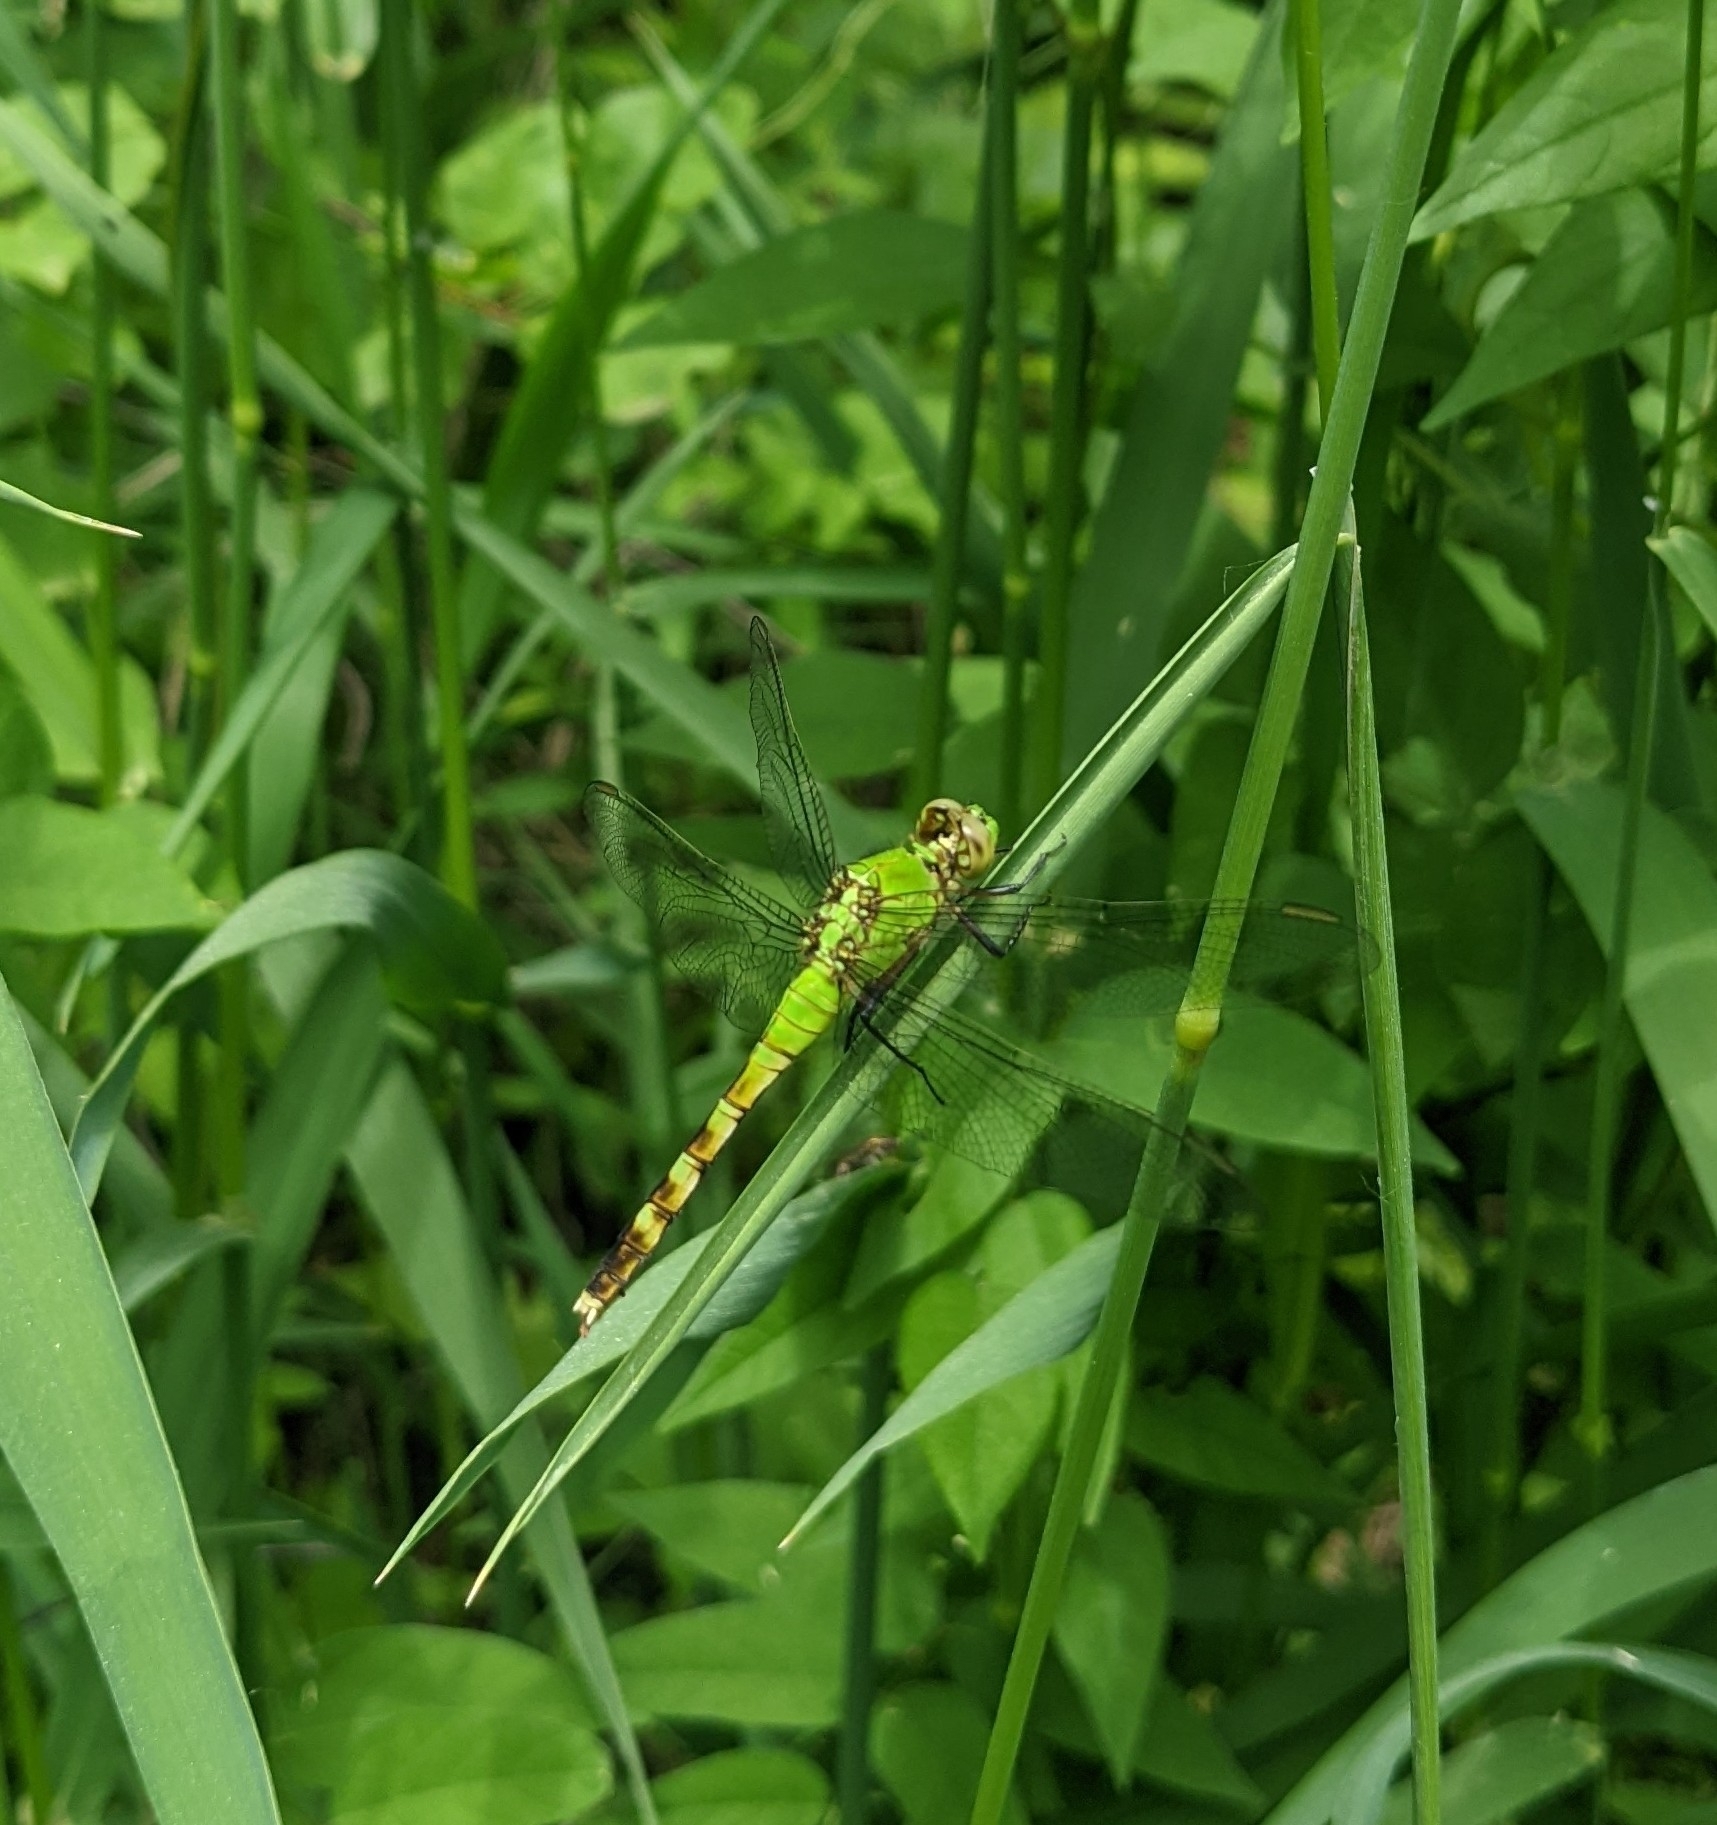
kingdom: Animalia
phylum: Arthropoda
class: Insecta
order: Odonata
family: Libellulidae
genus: Erythemis
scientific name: Erythemis simplicicollis
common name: Eastern pondhawk
